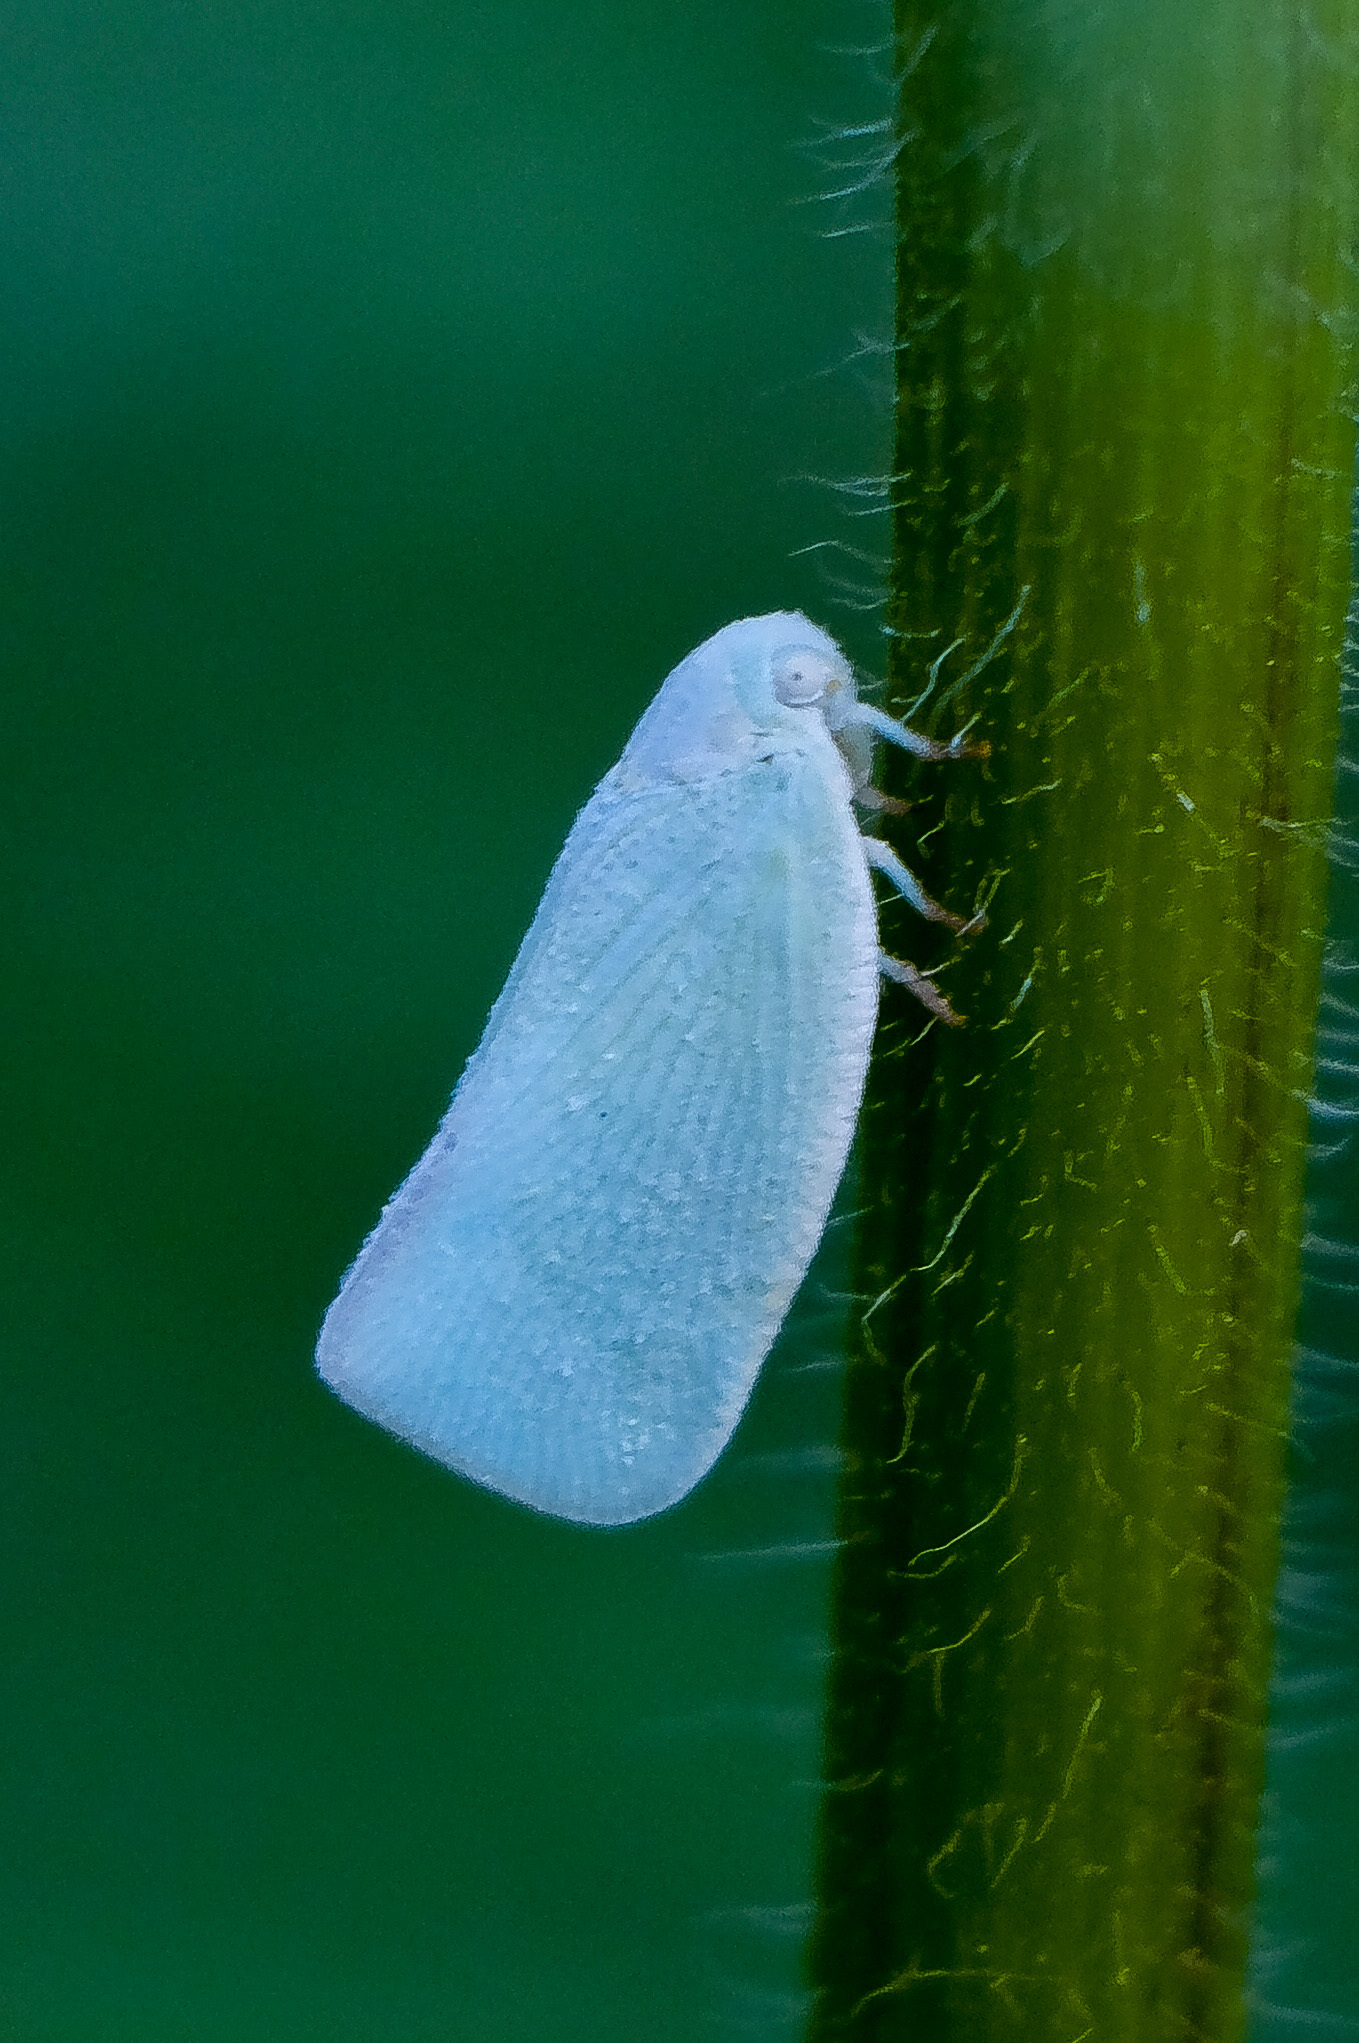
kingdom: Animalia
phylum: Arthropoda
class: Insecta
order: Hemiptera
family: Flatidae
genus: Flatormenis
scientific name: Flatormenis proxima
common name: Northern flatid planthopper
